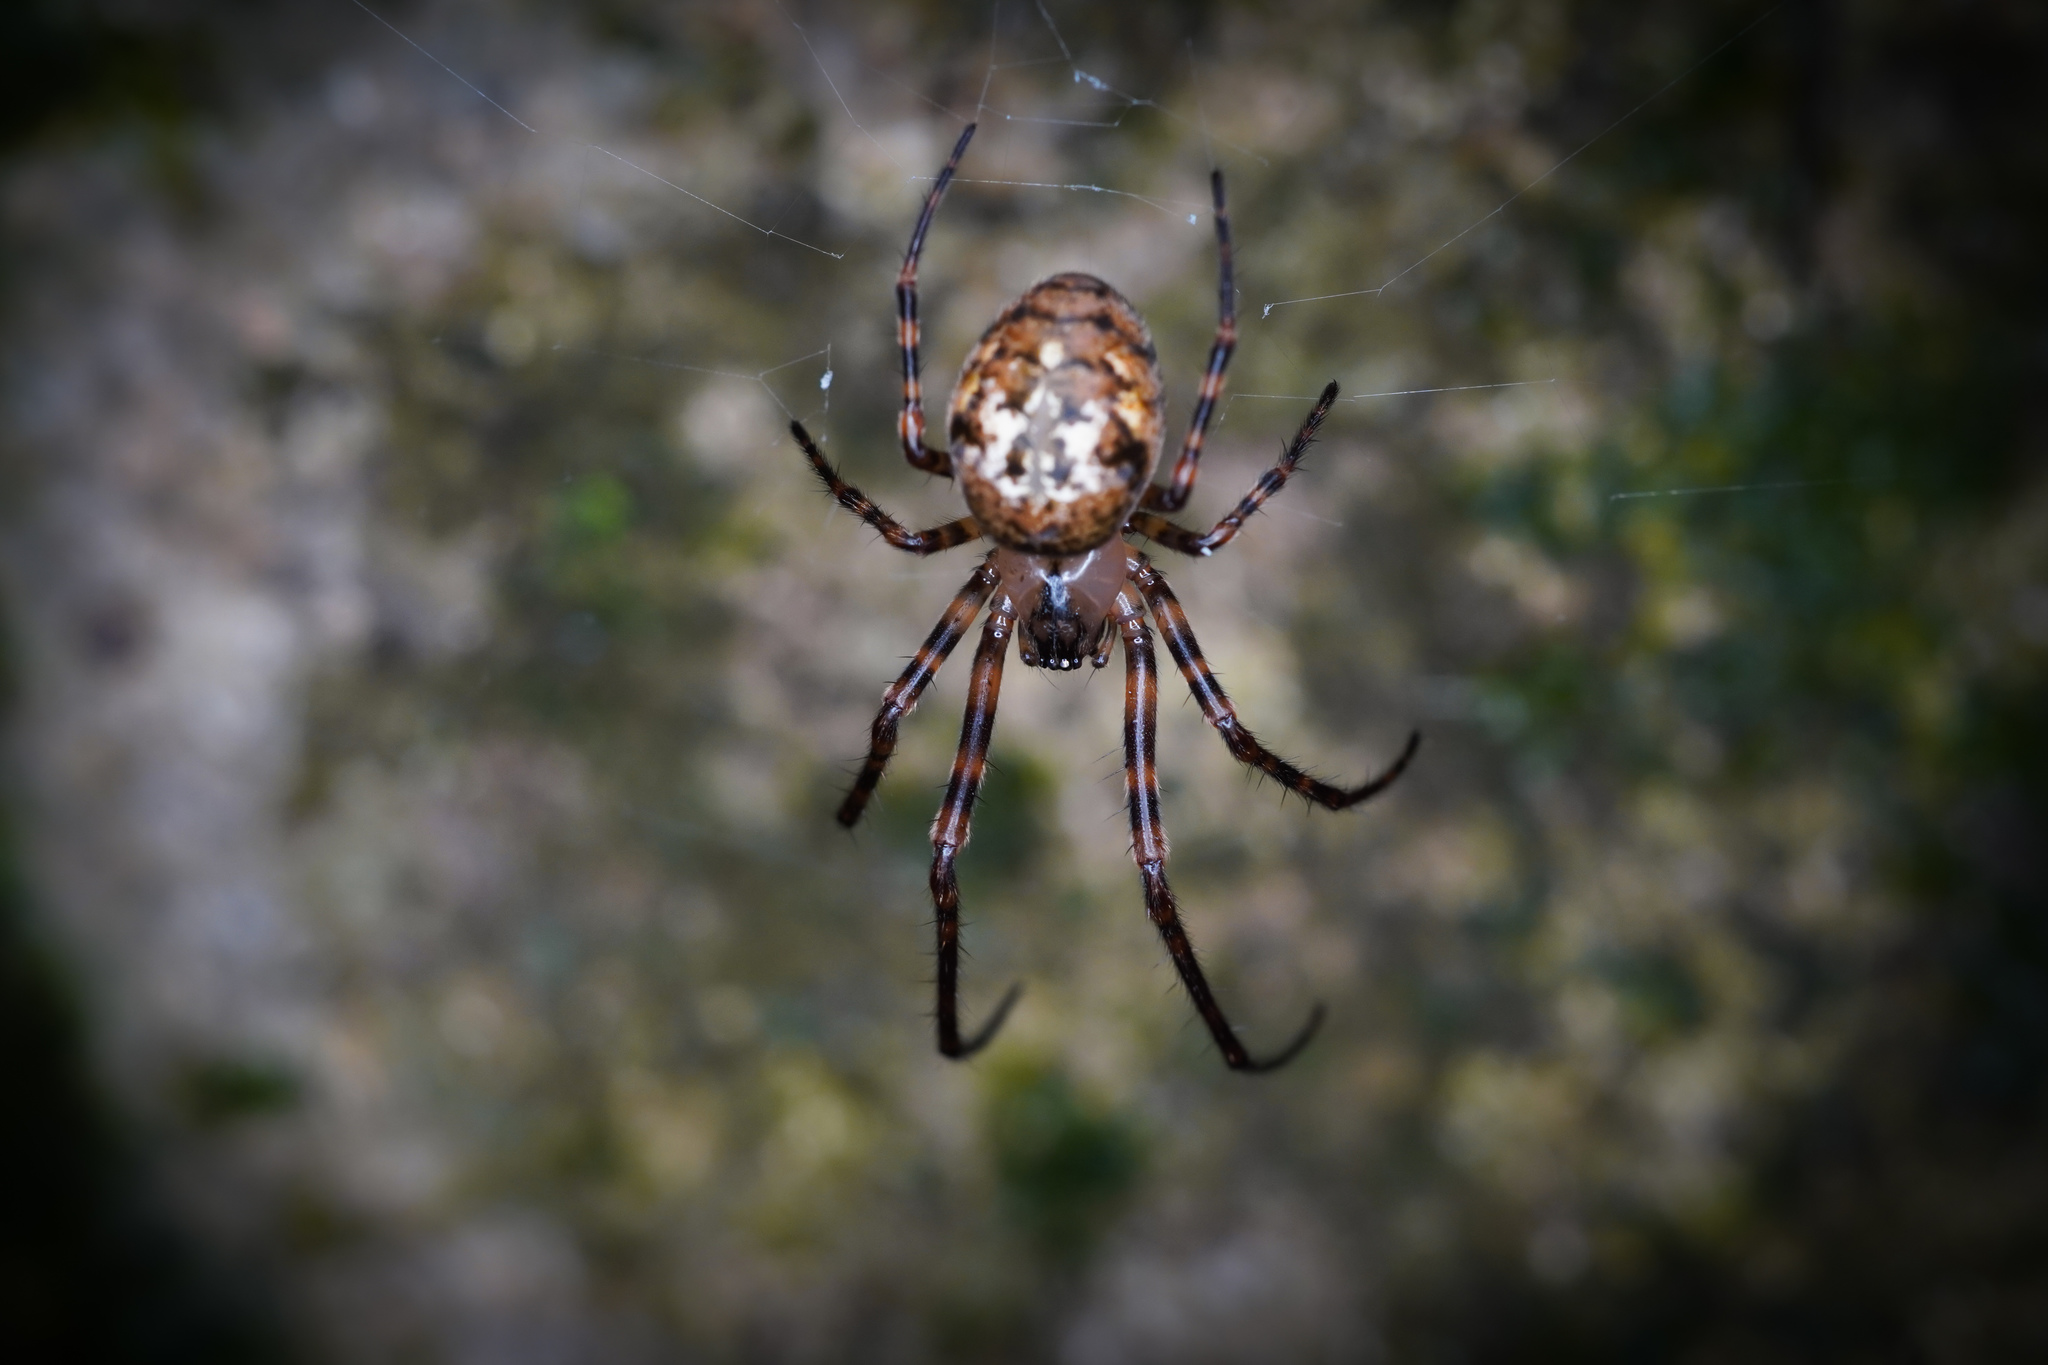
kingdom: Animalia
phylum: Arthropoda
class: Arachnida
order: Araneae
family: Tetragnathidae
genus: Taraire
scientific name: Taraire rufolineata
